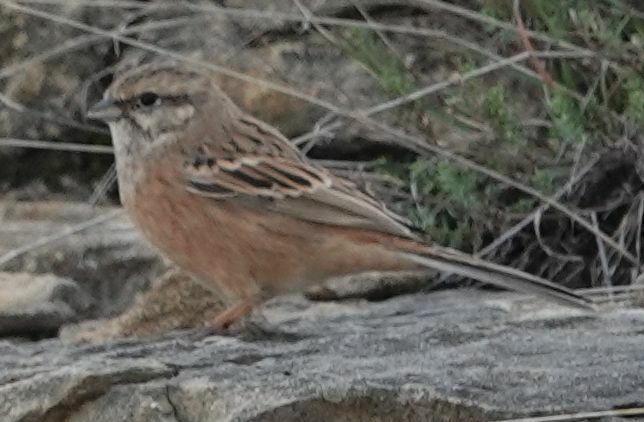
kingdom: Animalia
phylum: Chordata
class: Aves
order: Passeriformes
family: Emberizidae
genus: Emberiza
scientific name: Emberiza cia
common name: Rock bunting
